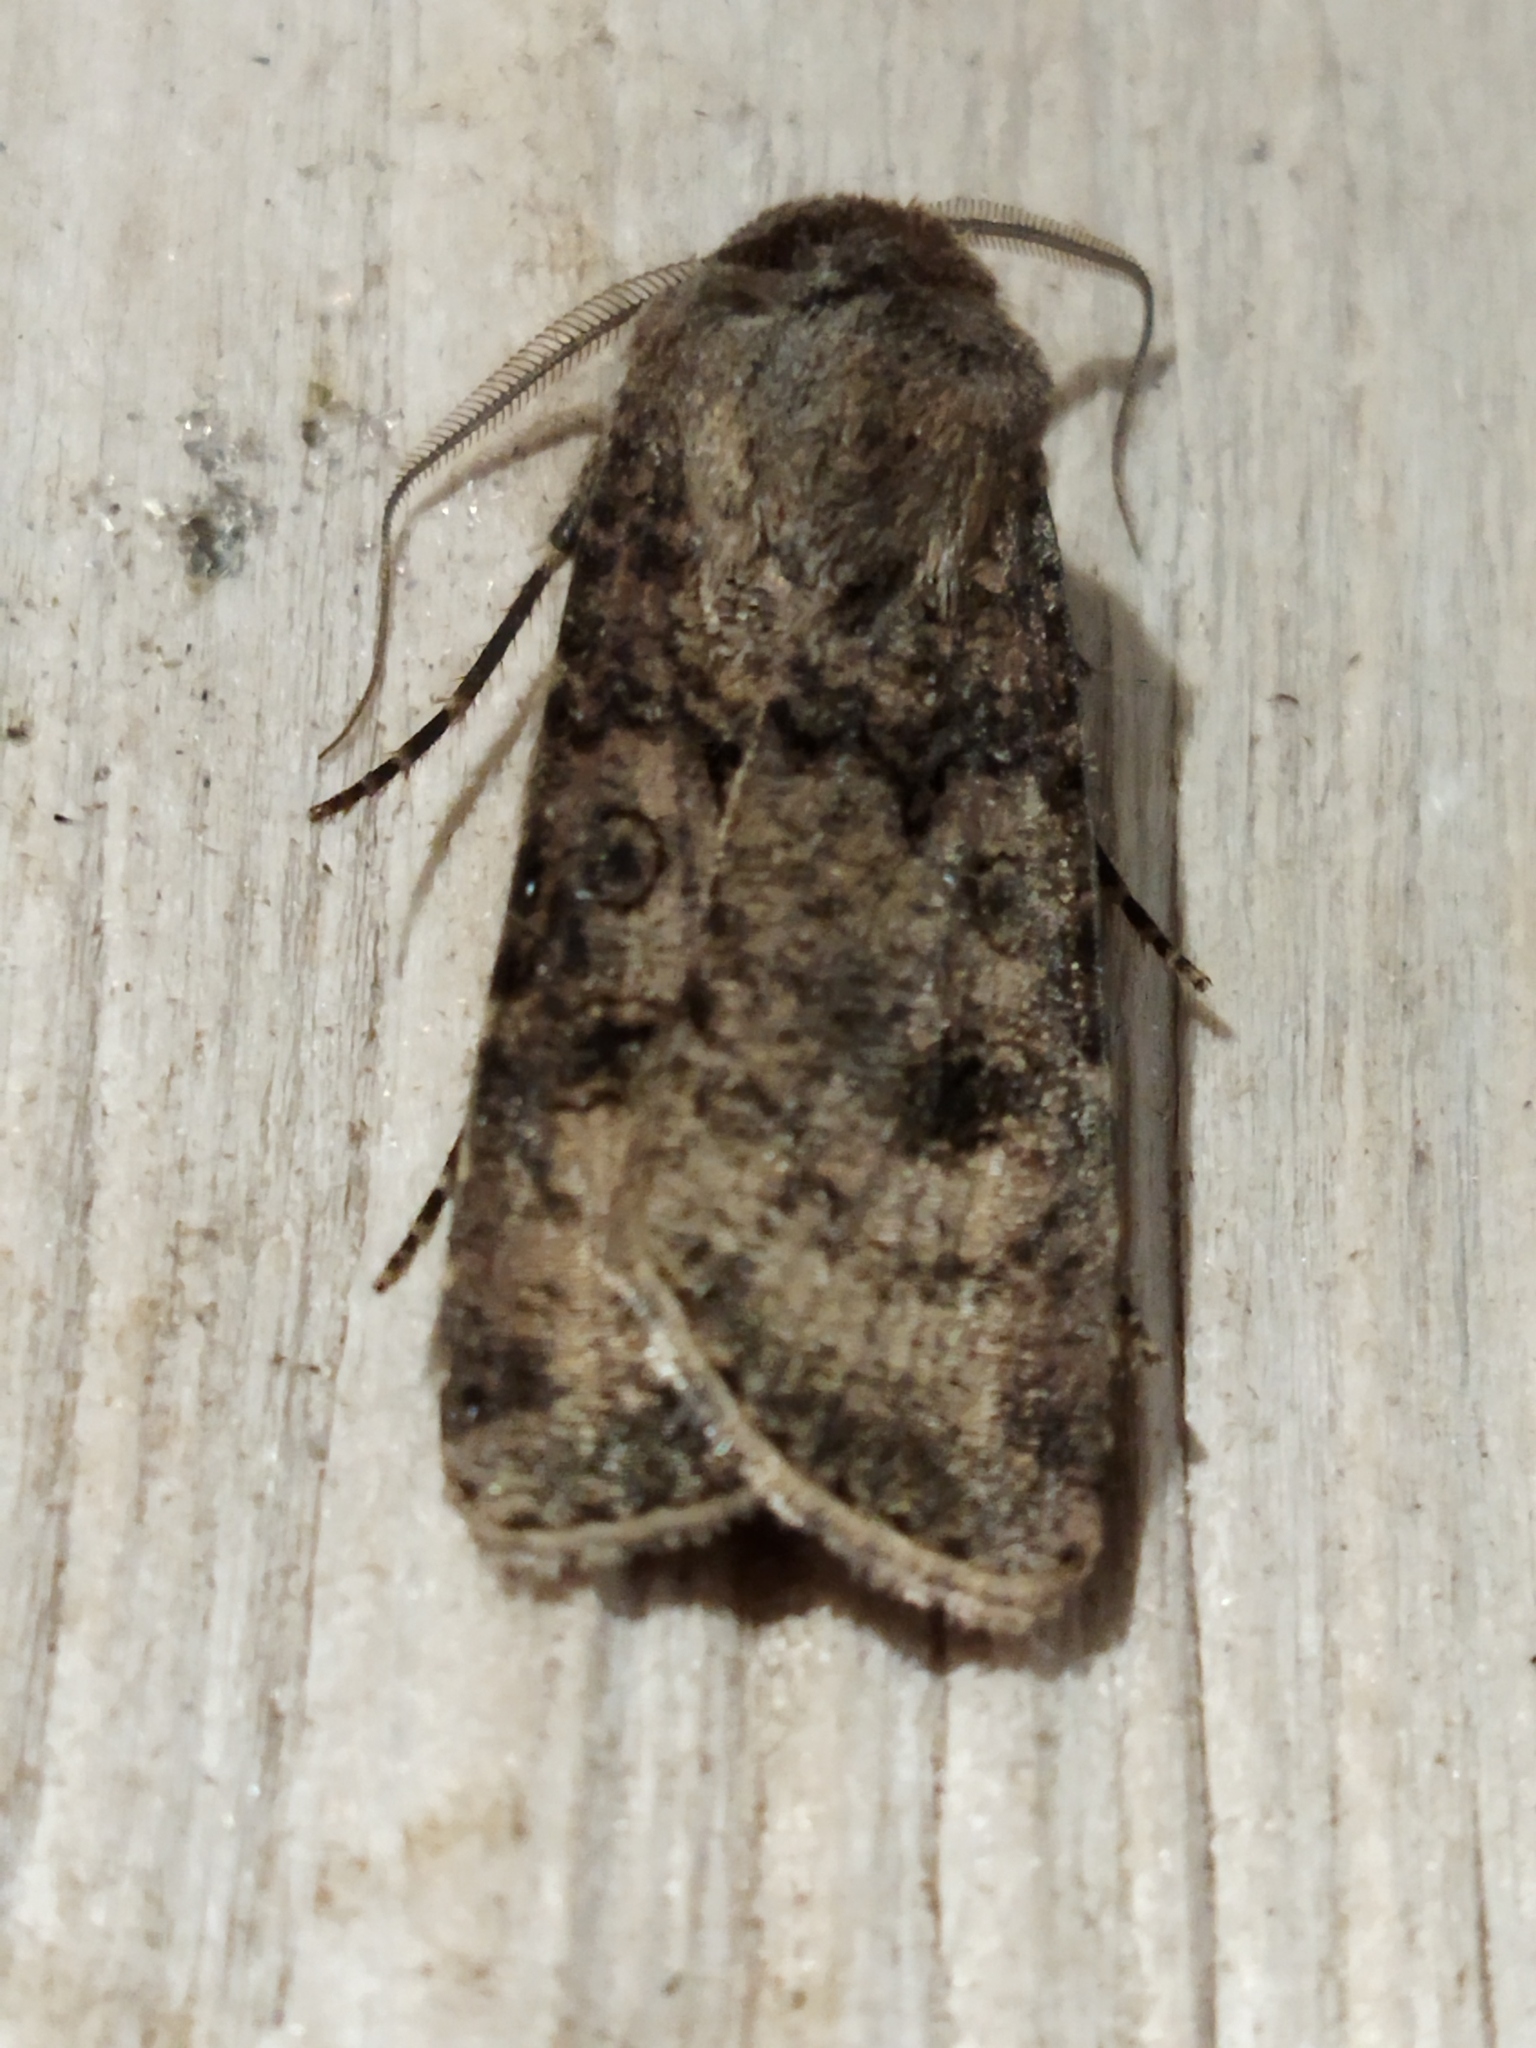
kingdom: Animalia
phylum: Arthropoda
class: Insecta
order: Lepidoptera
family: Noctuidae
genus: Agrotis
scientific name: Agrotis segetum
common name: Turnip moth
